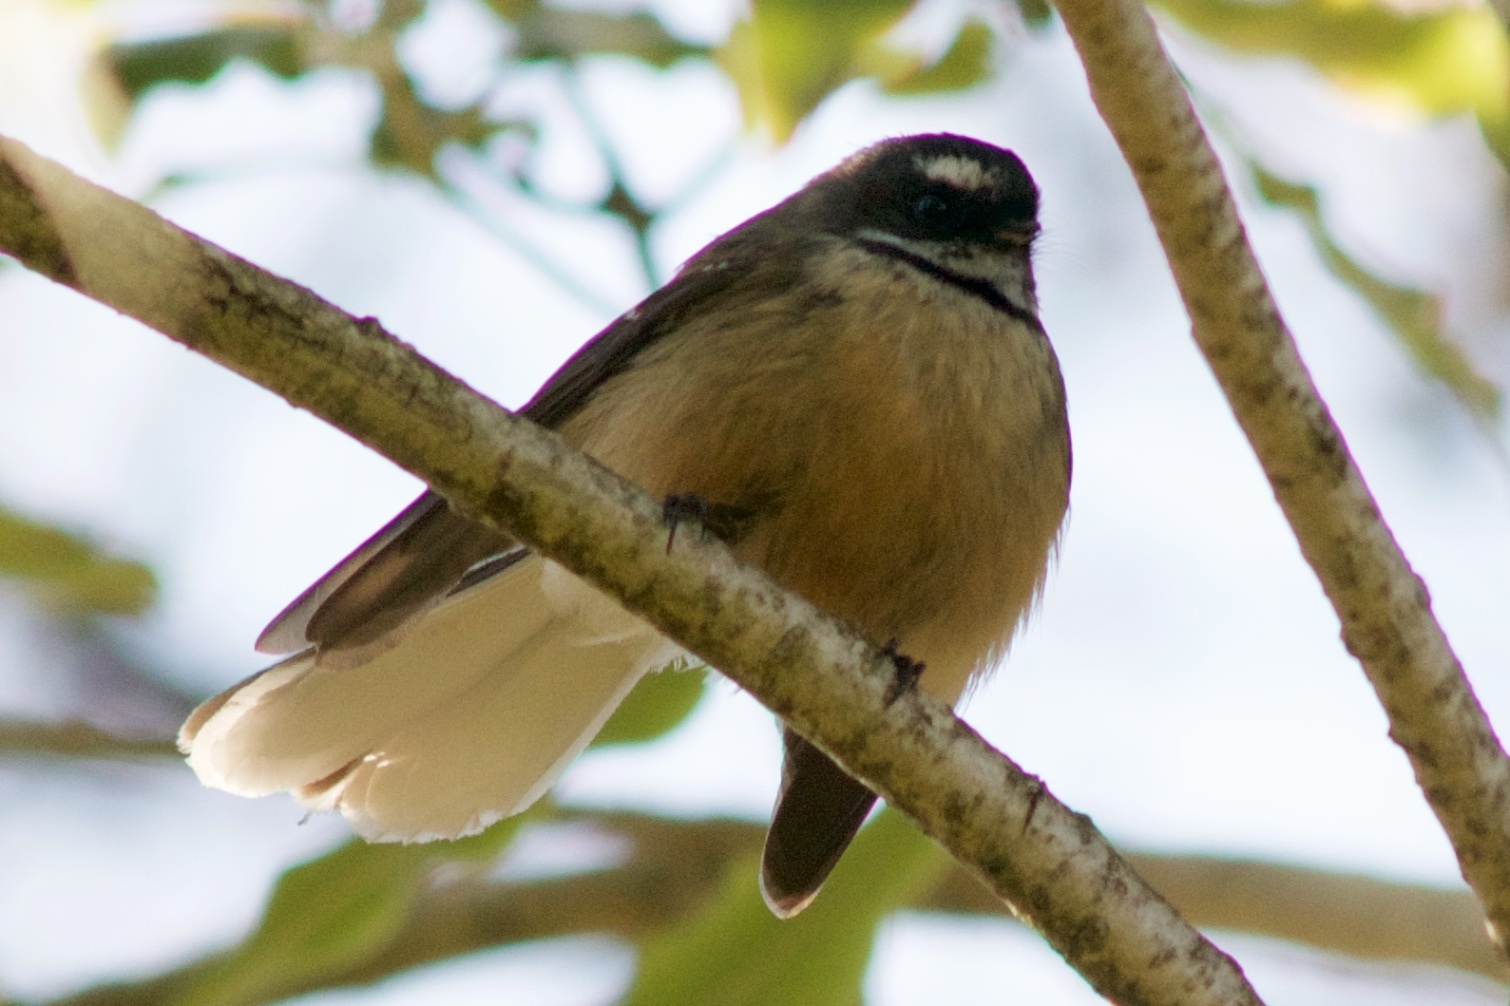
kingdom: Animalia
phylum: Chordata
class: Aves
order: Passeriformes
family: Rhipiduridae
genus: Rhipidura
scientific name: Rhipidura fuliginosa
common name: New zealand fantail
